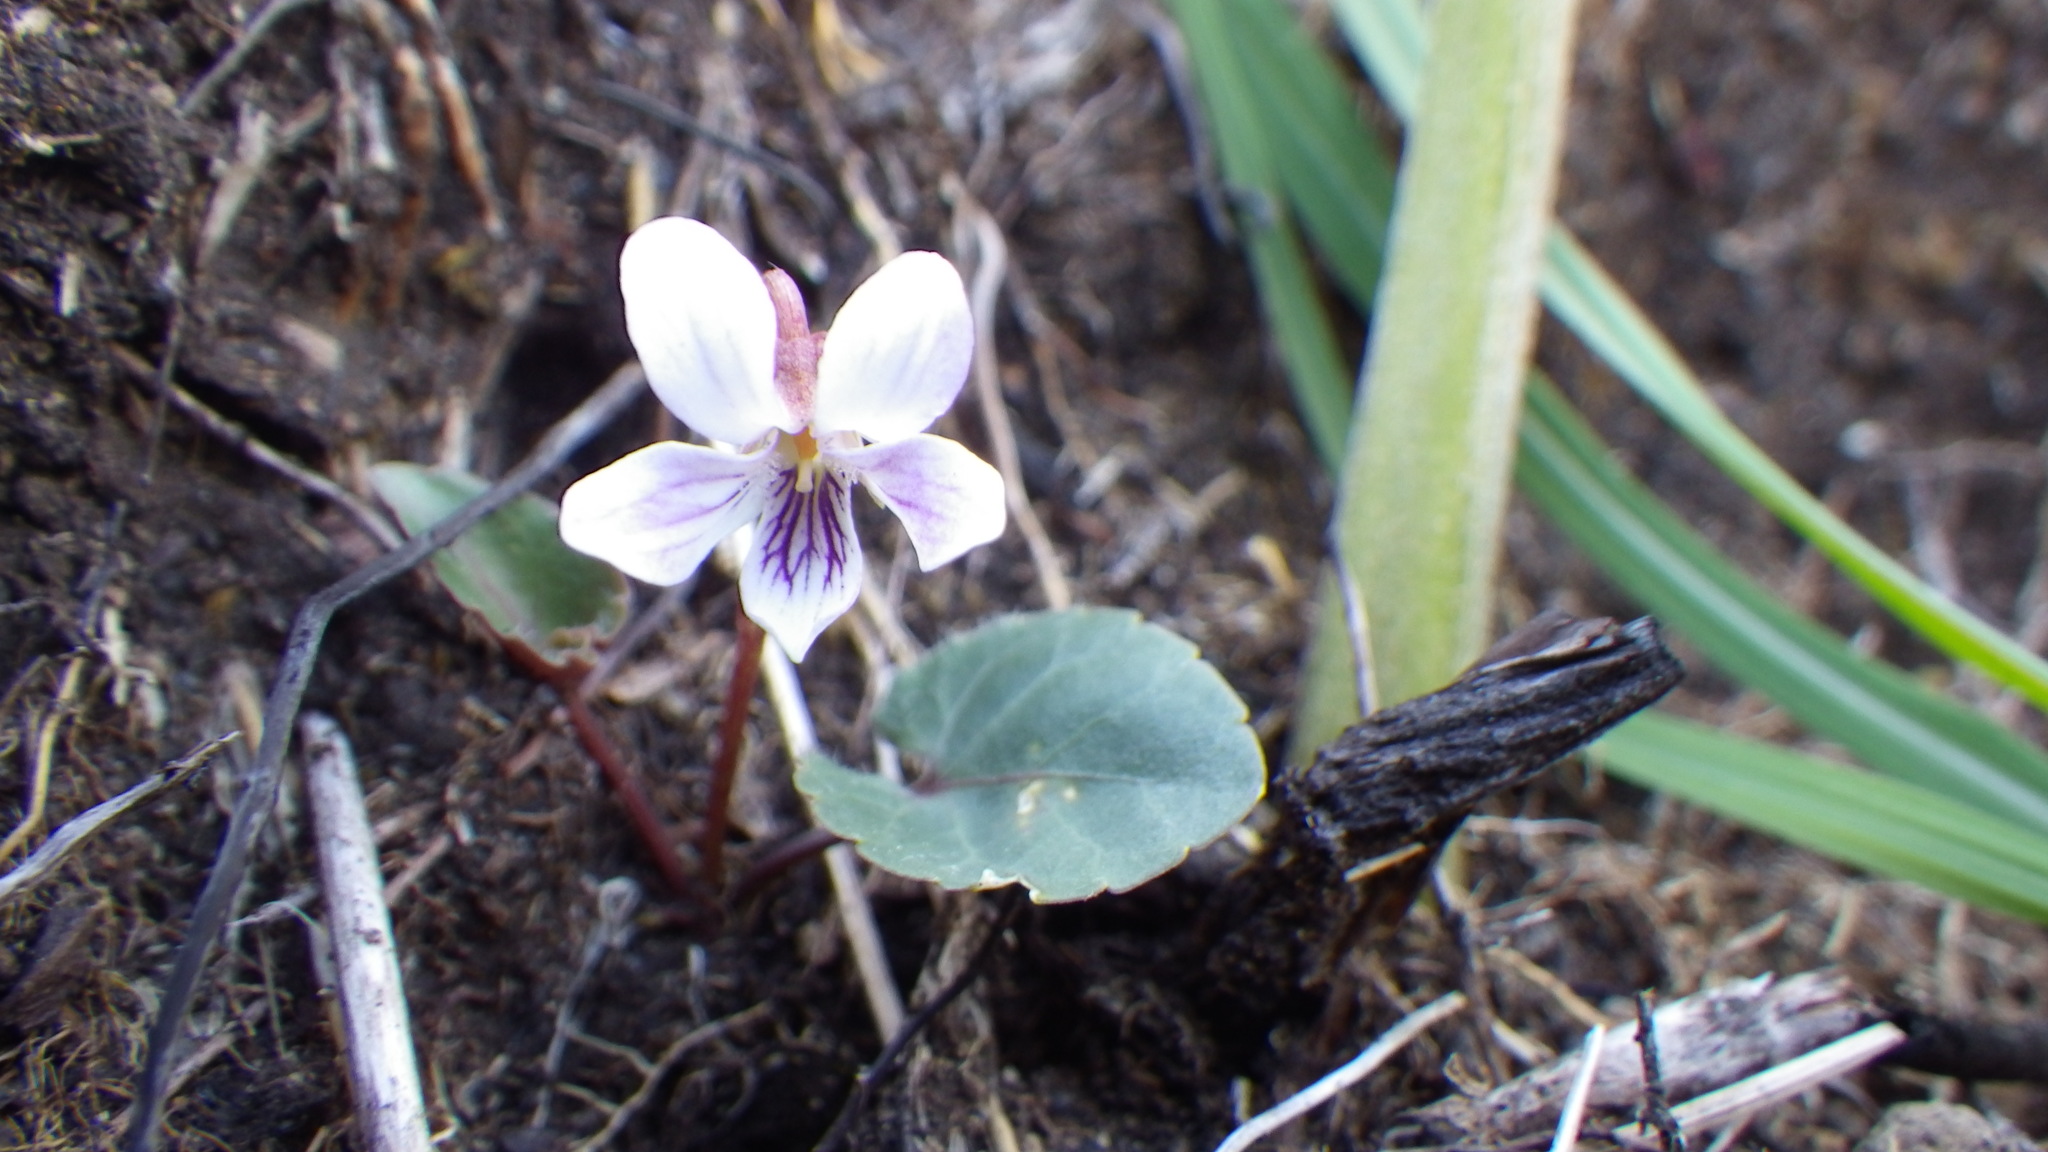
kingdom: Plantae
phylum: Tracheophyta
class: Magnoliopsida
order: Malpighiales
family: Violaceae
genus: Viola
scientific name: Viola sieboldii
